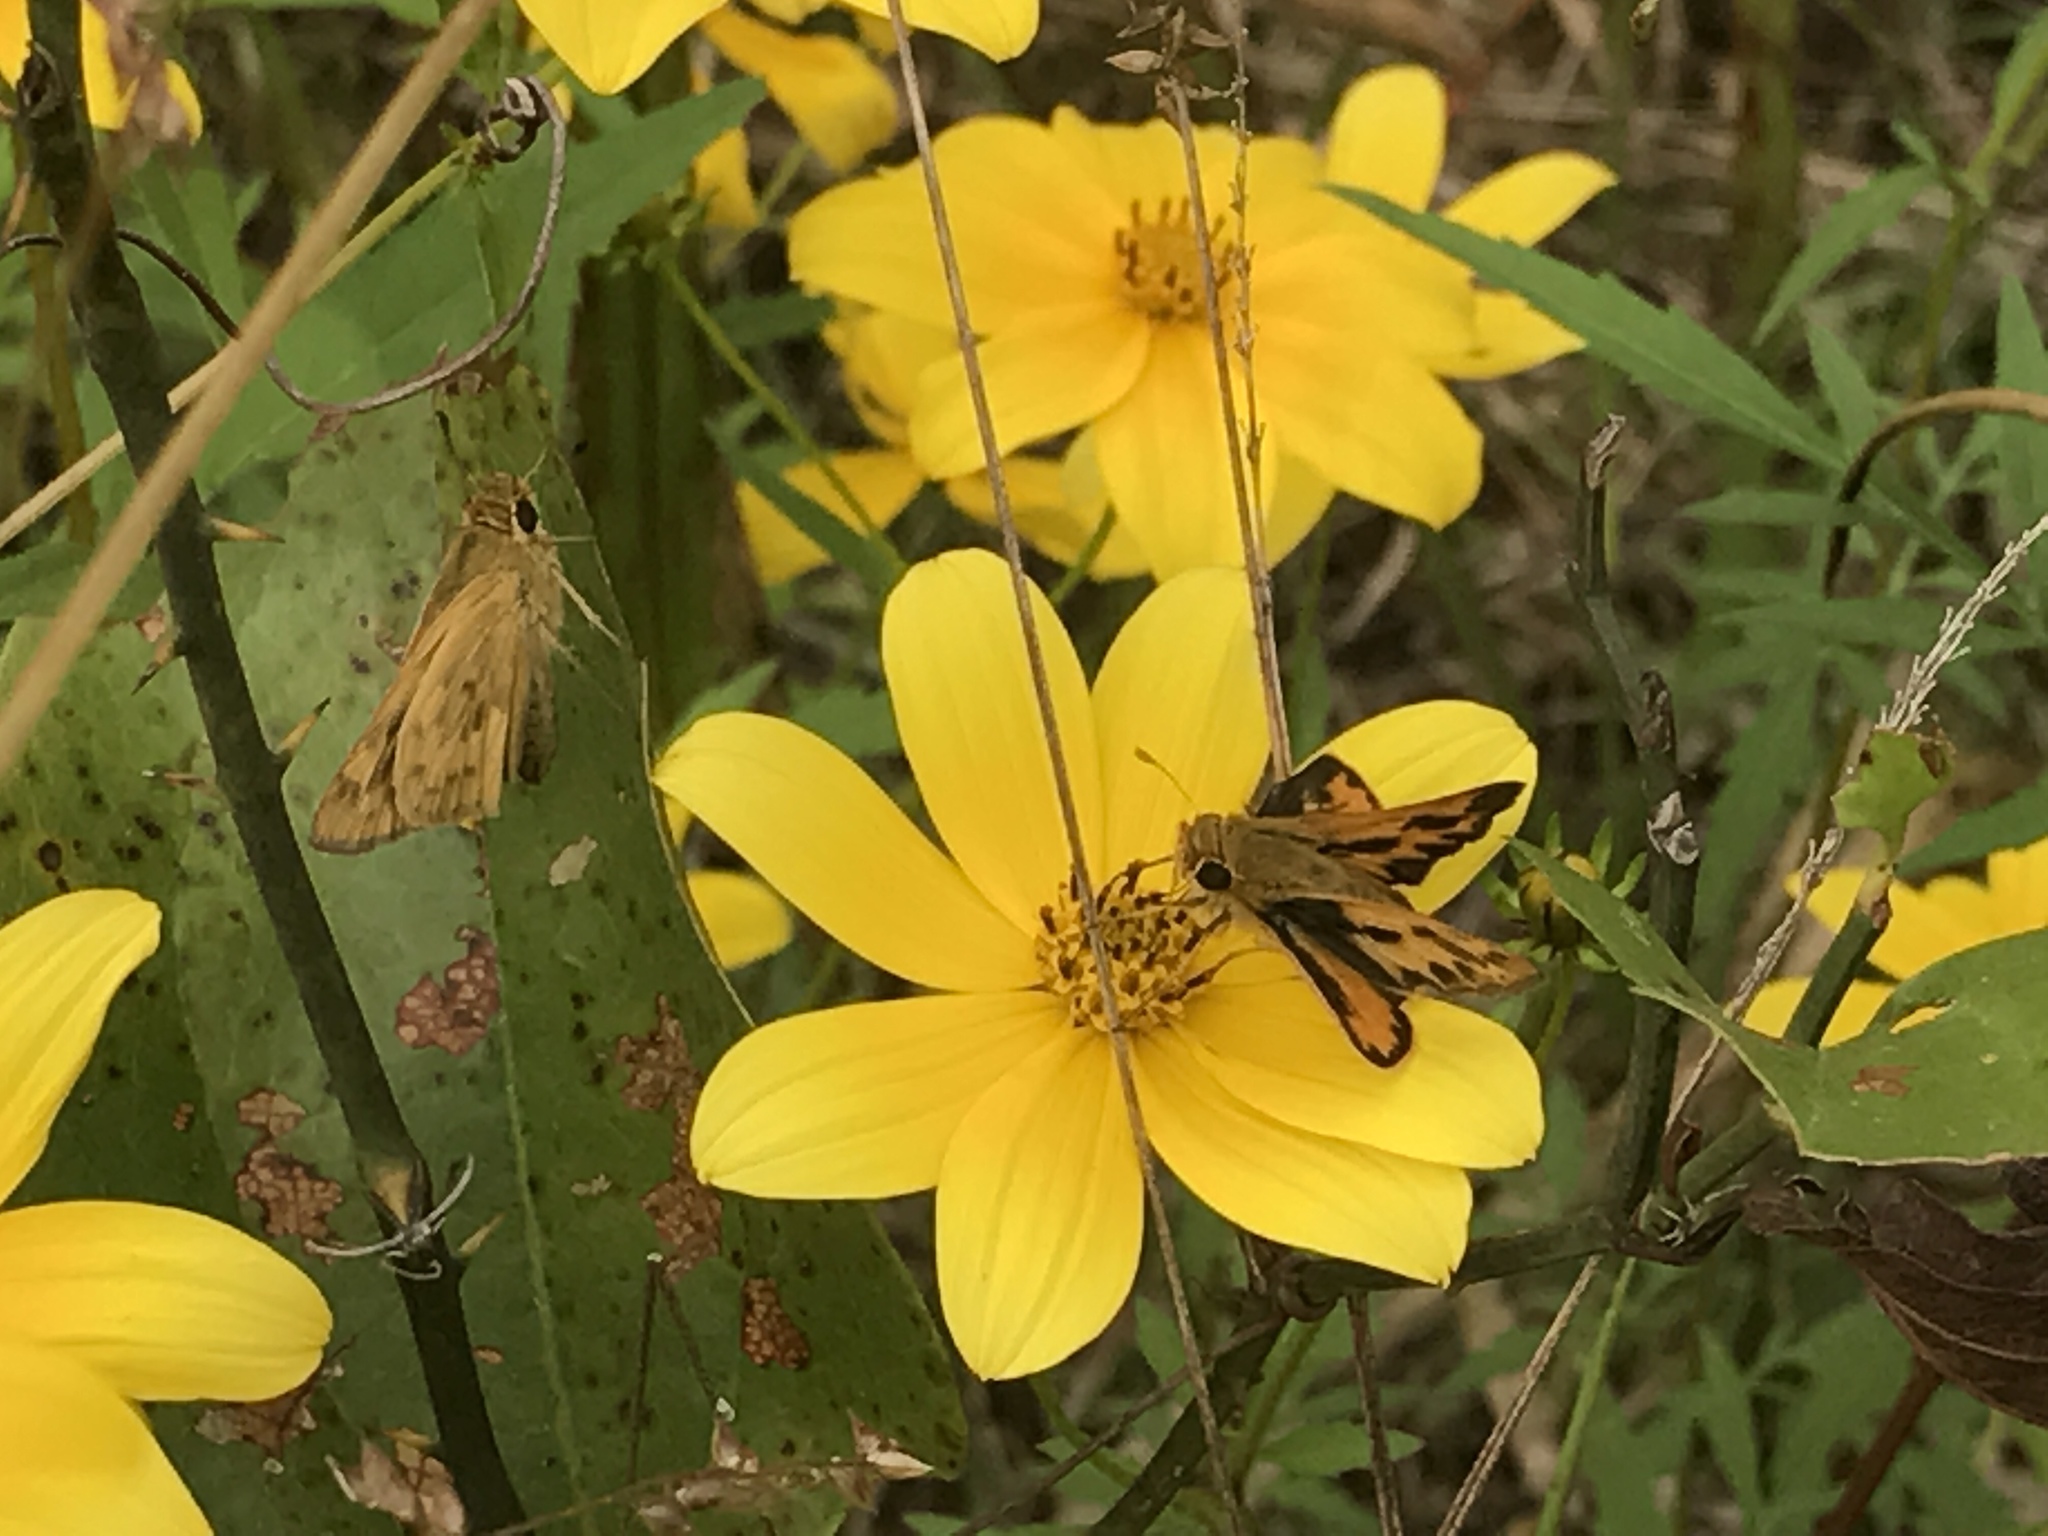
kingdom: Animalia
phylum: Arthropoda
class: Insecta
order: Lepidoptera
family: Hesperiidae
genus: Hylephila
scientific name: Hylephila phyleus
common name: Fiery skipper
